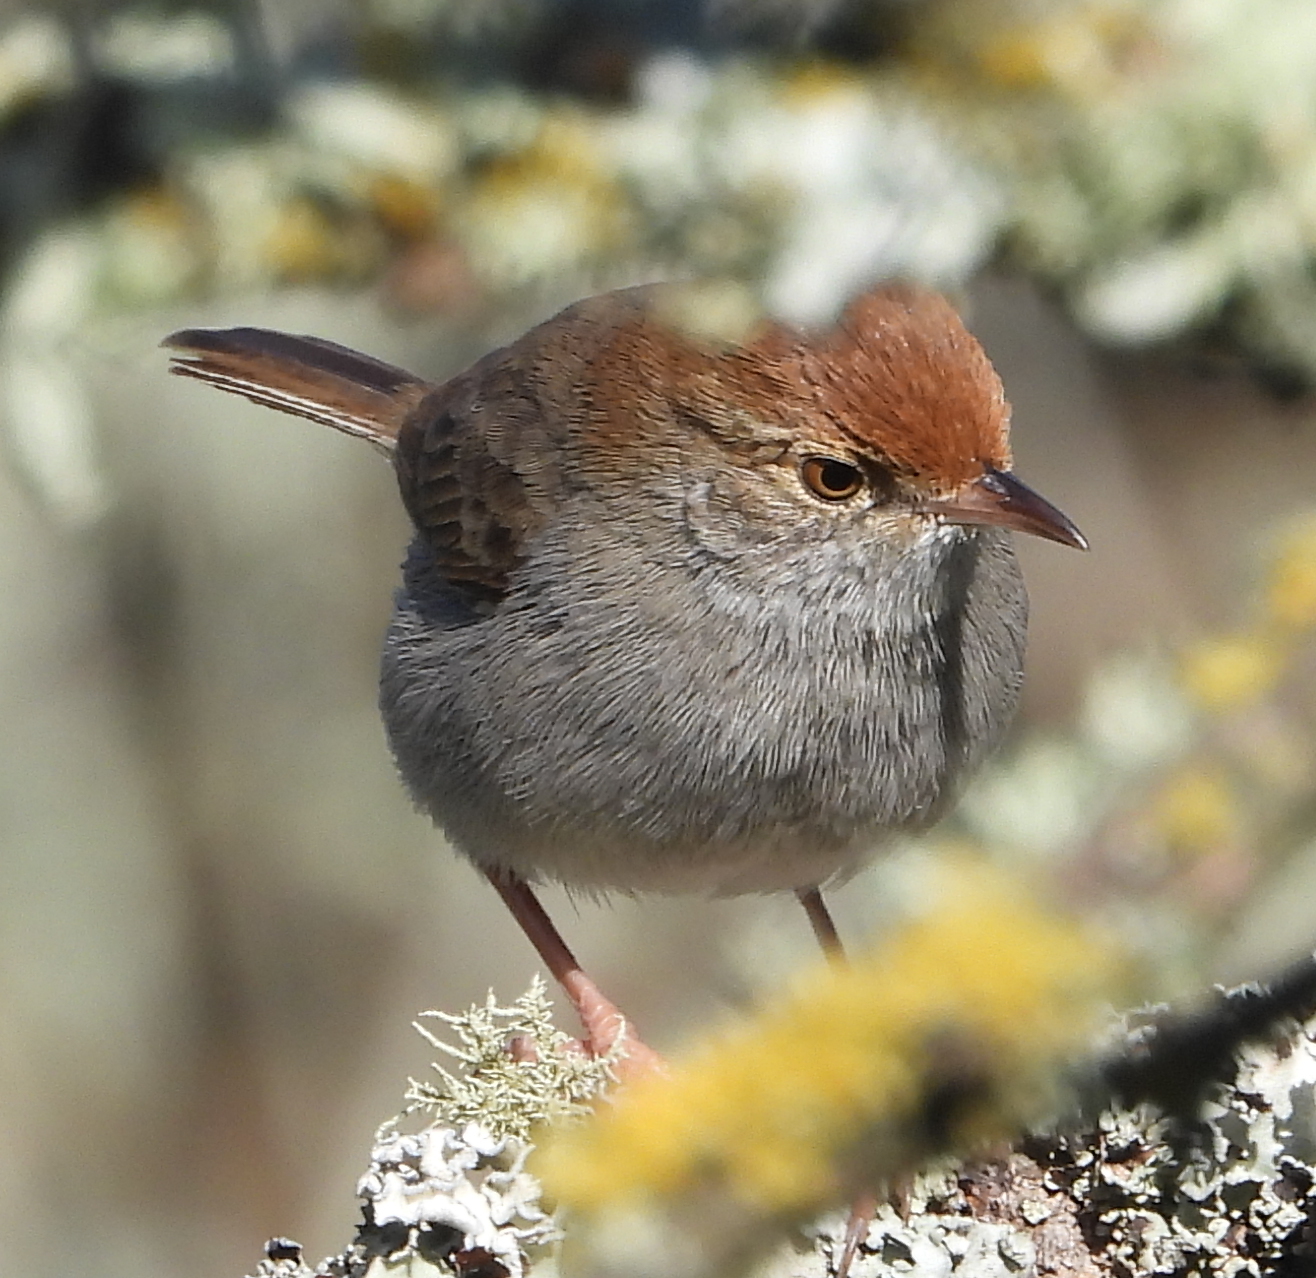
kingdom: Animalia
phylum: Chordata
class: Aves
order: Passeriformes
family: Cisticolidae
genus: Cisticola
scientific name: Cisticola fulvicapilla
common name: Neddicky
